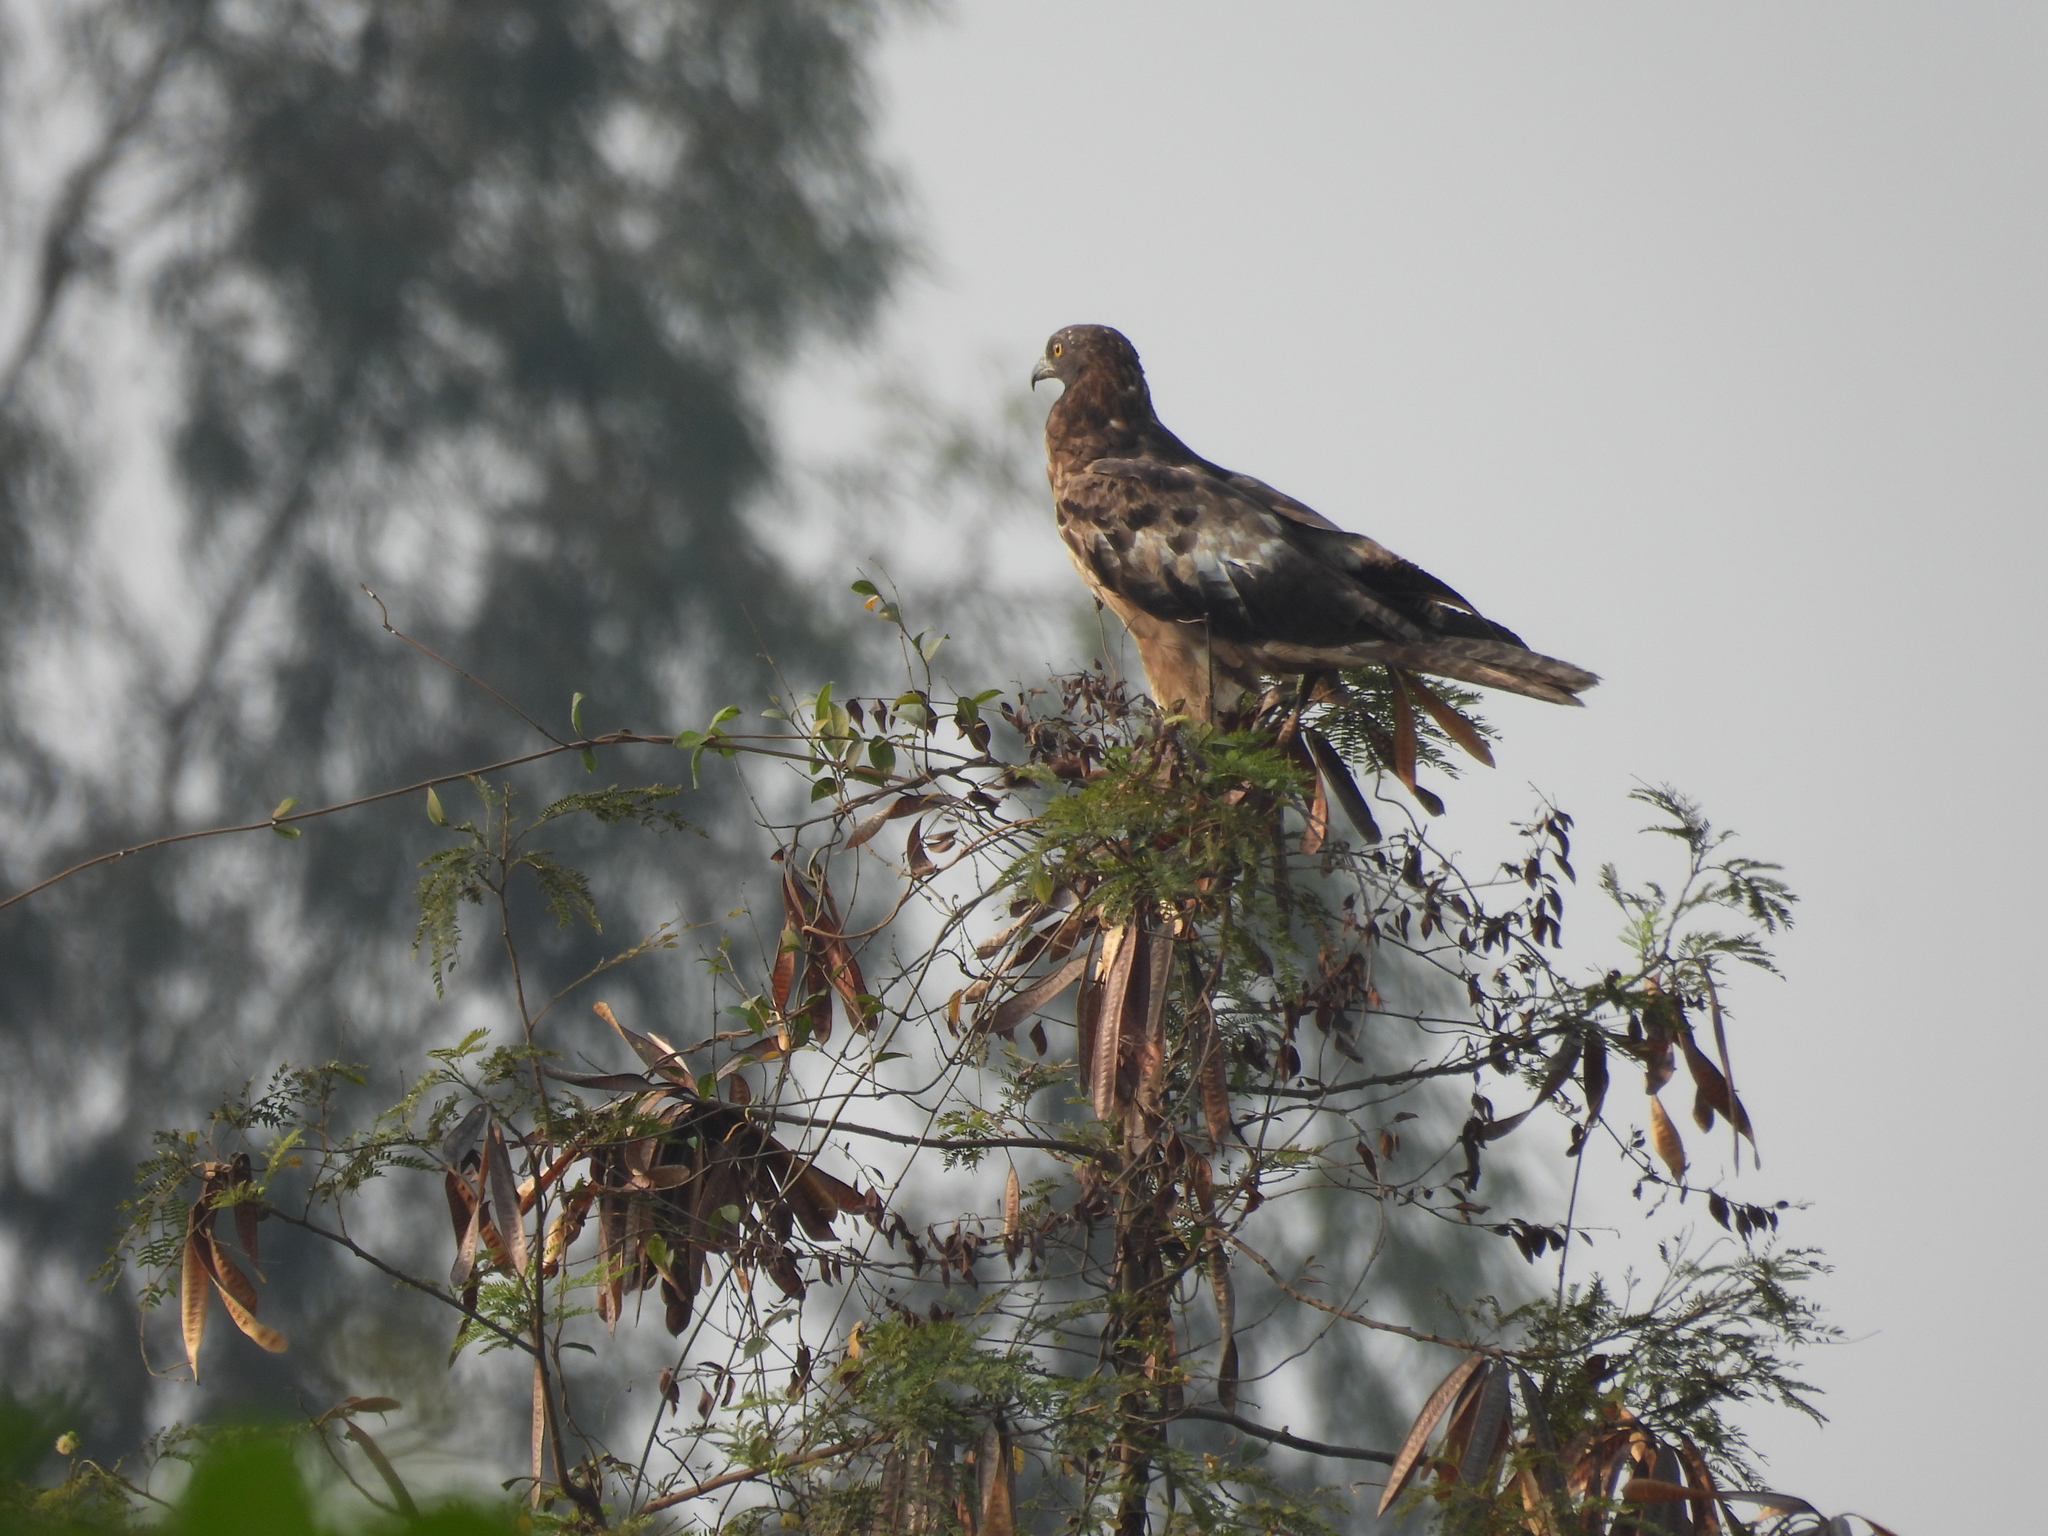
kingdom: Animalia
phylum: Chordata
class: Aves
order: Accipitriformes
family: Accipitridae
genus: Pernis
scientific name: Pernis ptilorhynchus
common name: Crested honey buzzard
